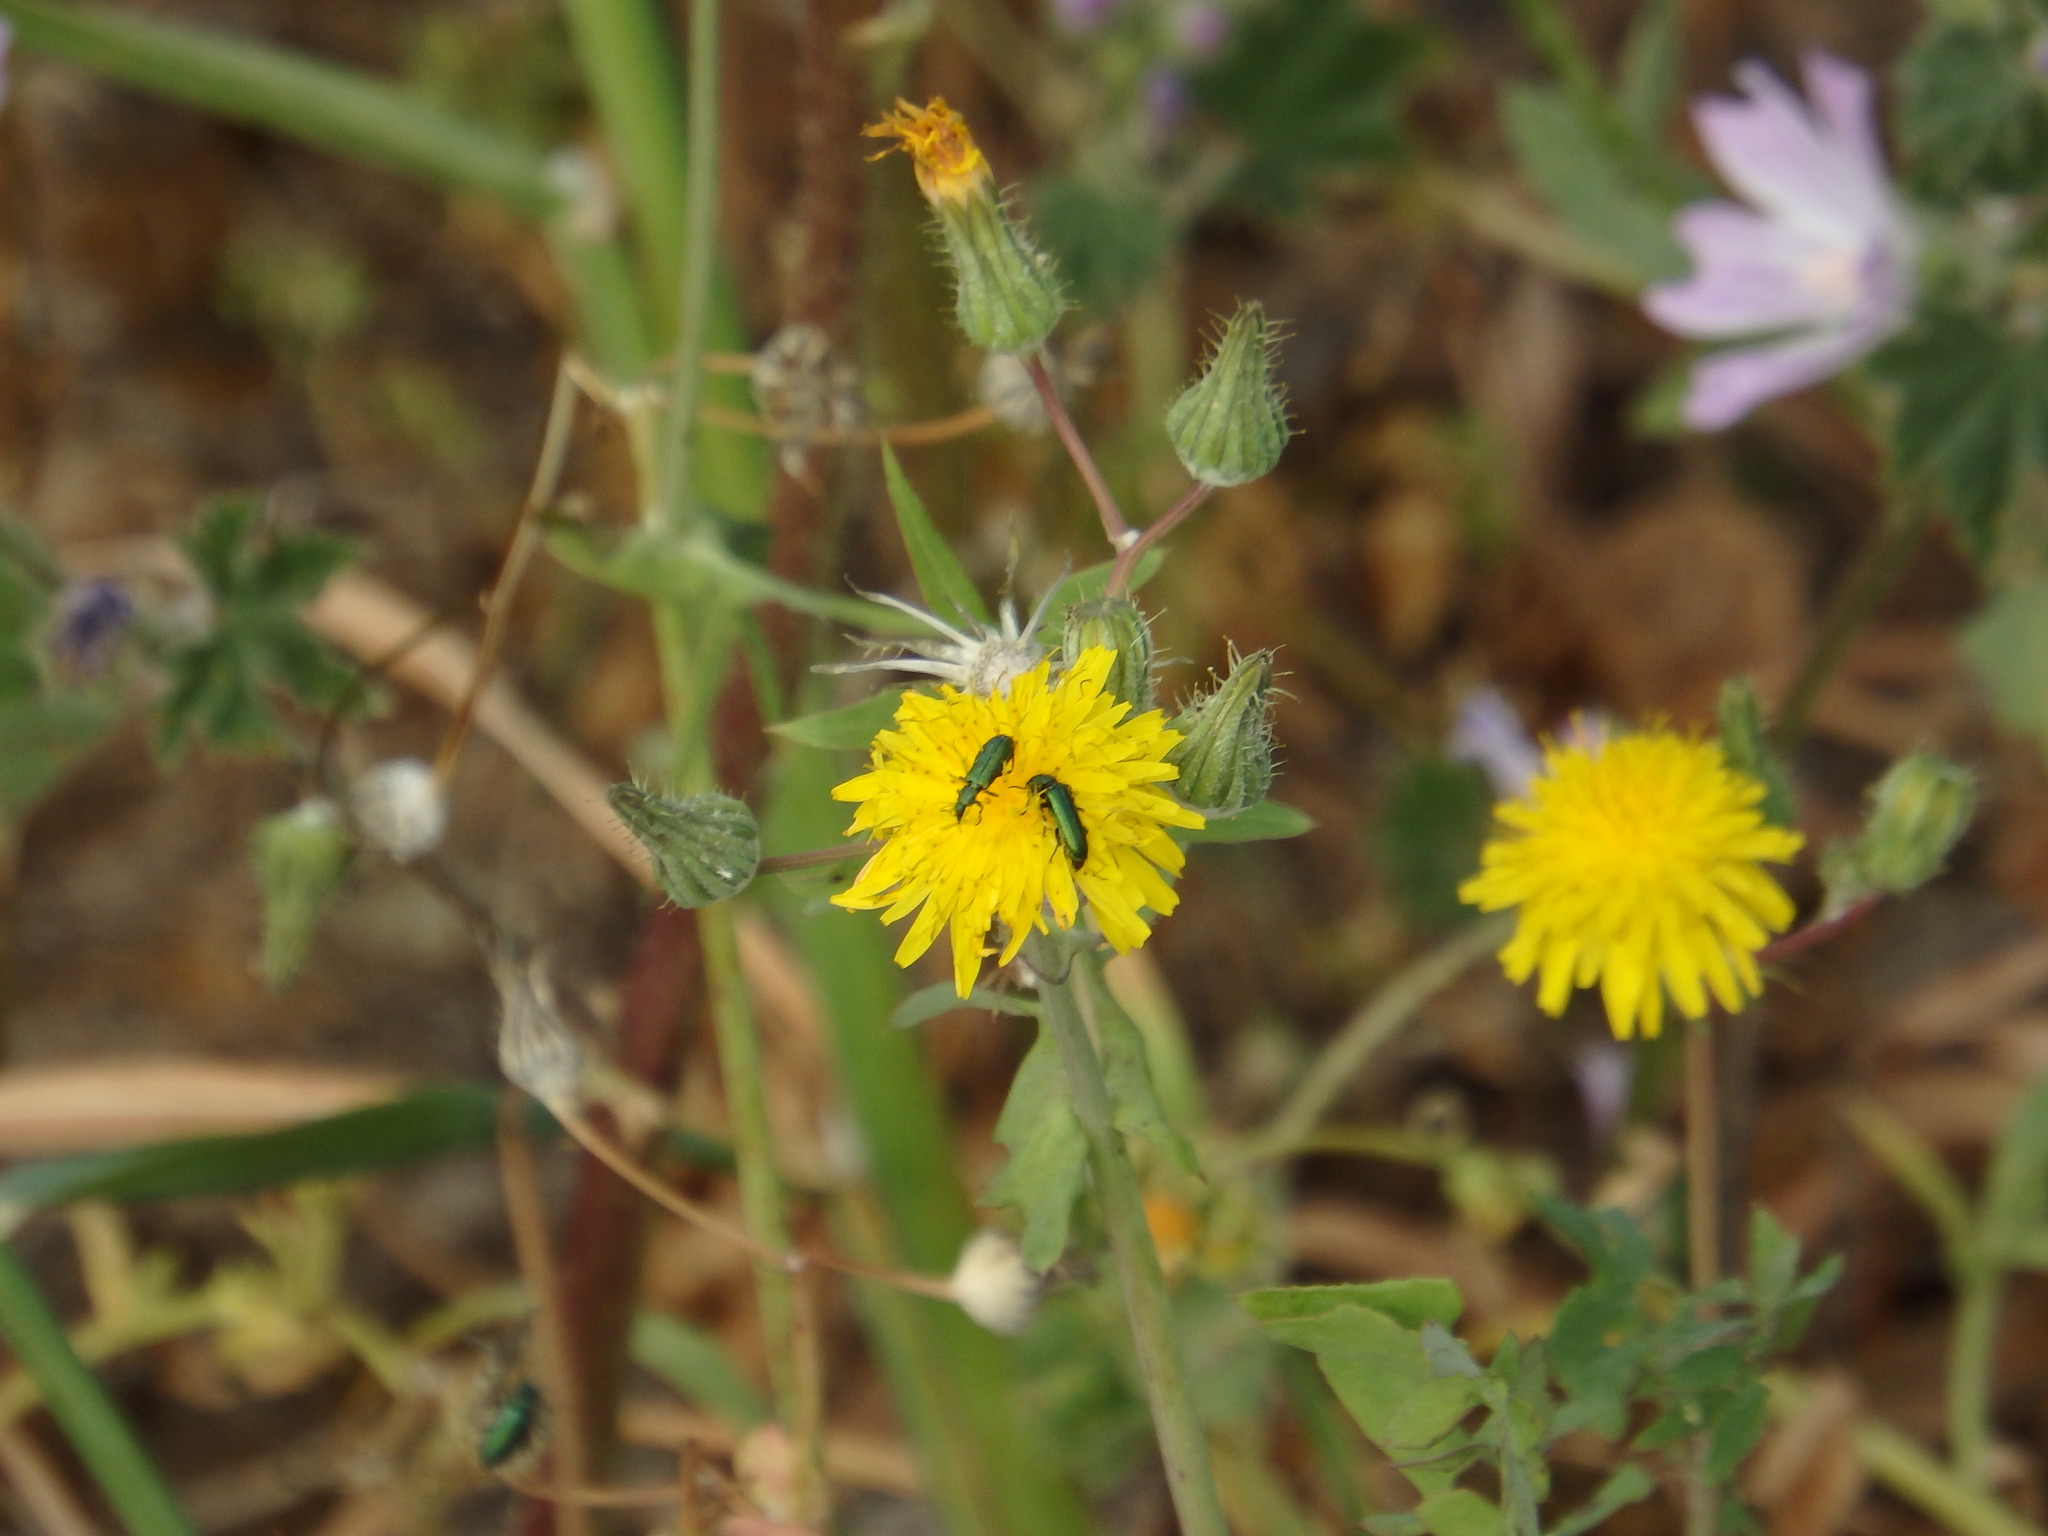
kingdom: Animalia
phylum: Arthropoda
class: Insecta
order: Coleoptera
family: Dasytidae
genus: Psilothrix
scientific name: Psilothrix viridicoerulea
